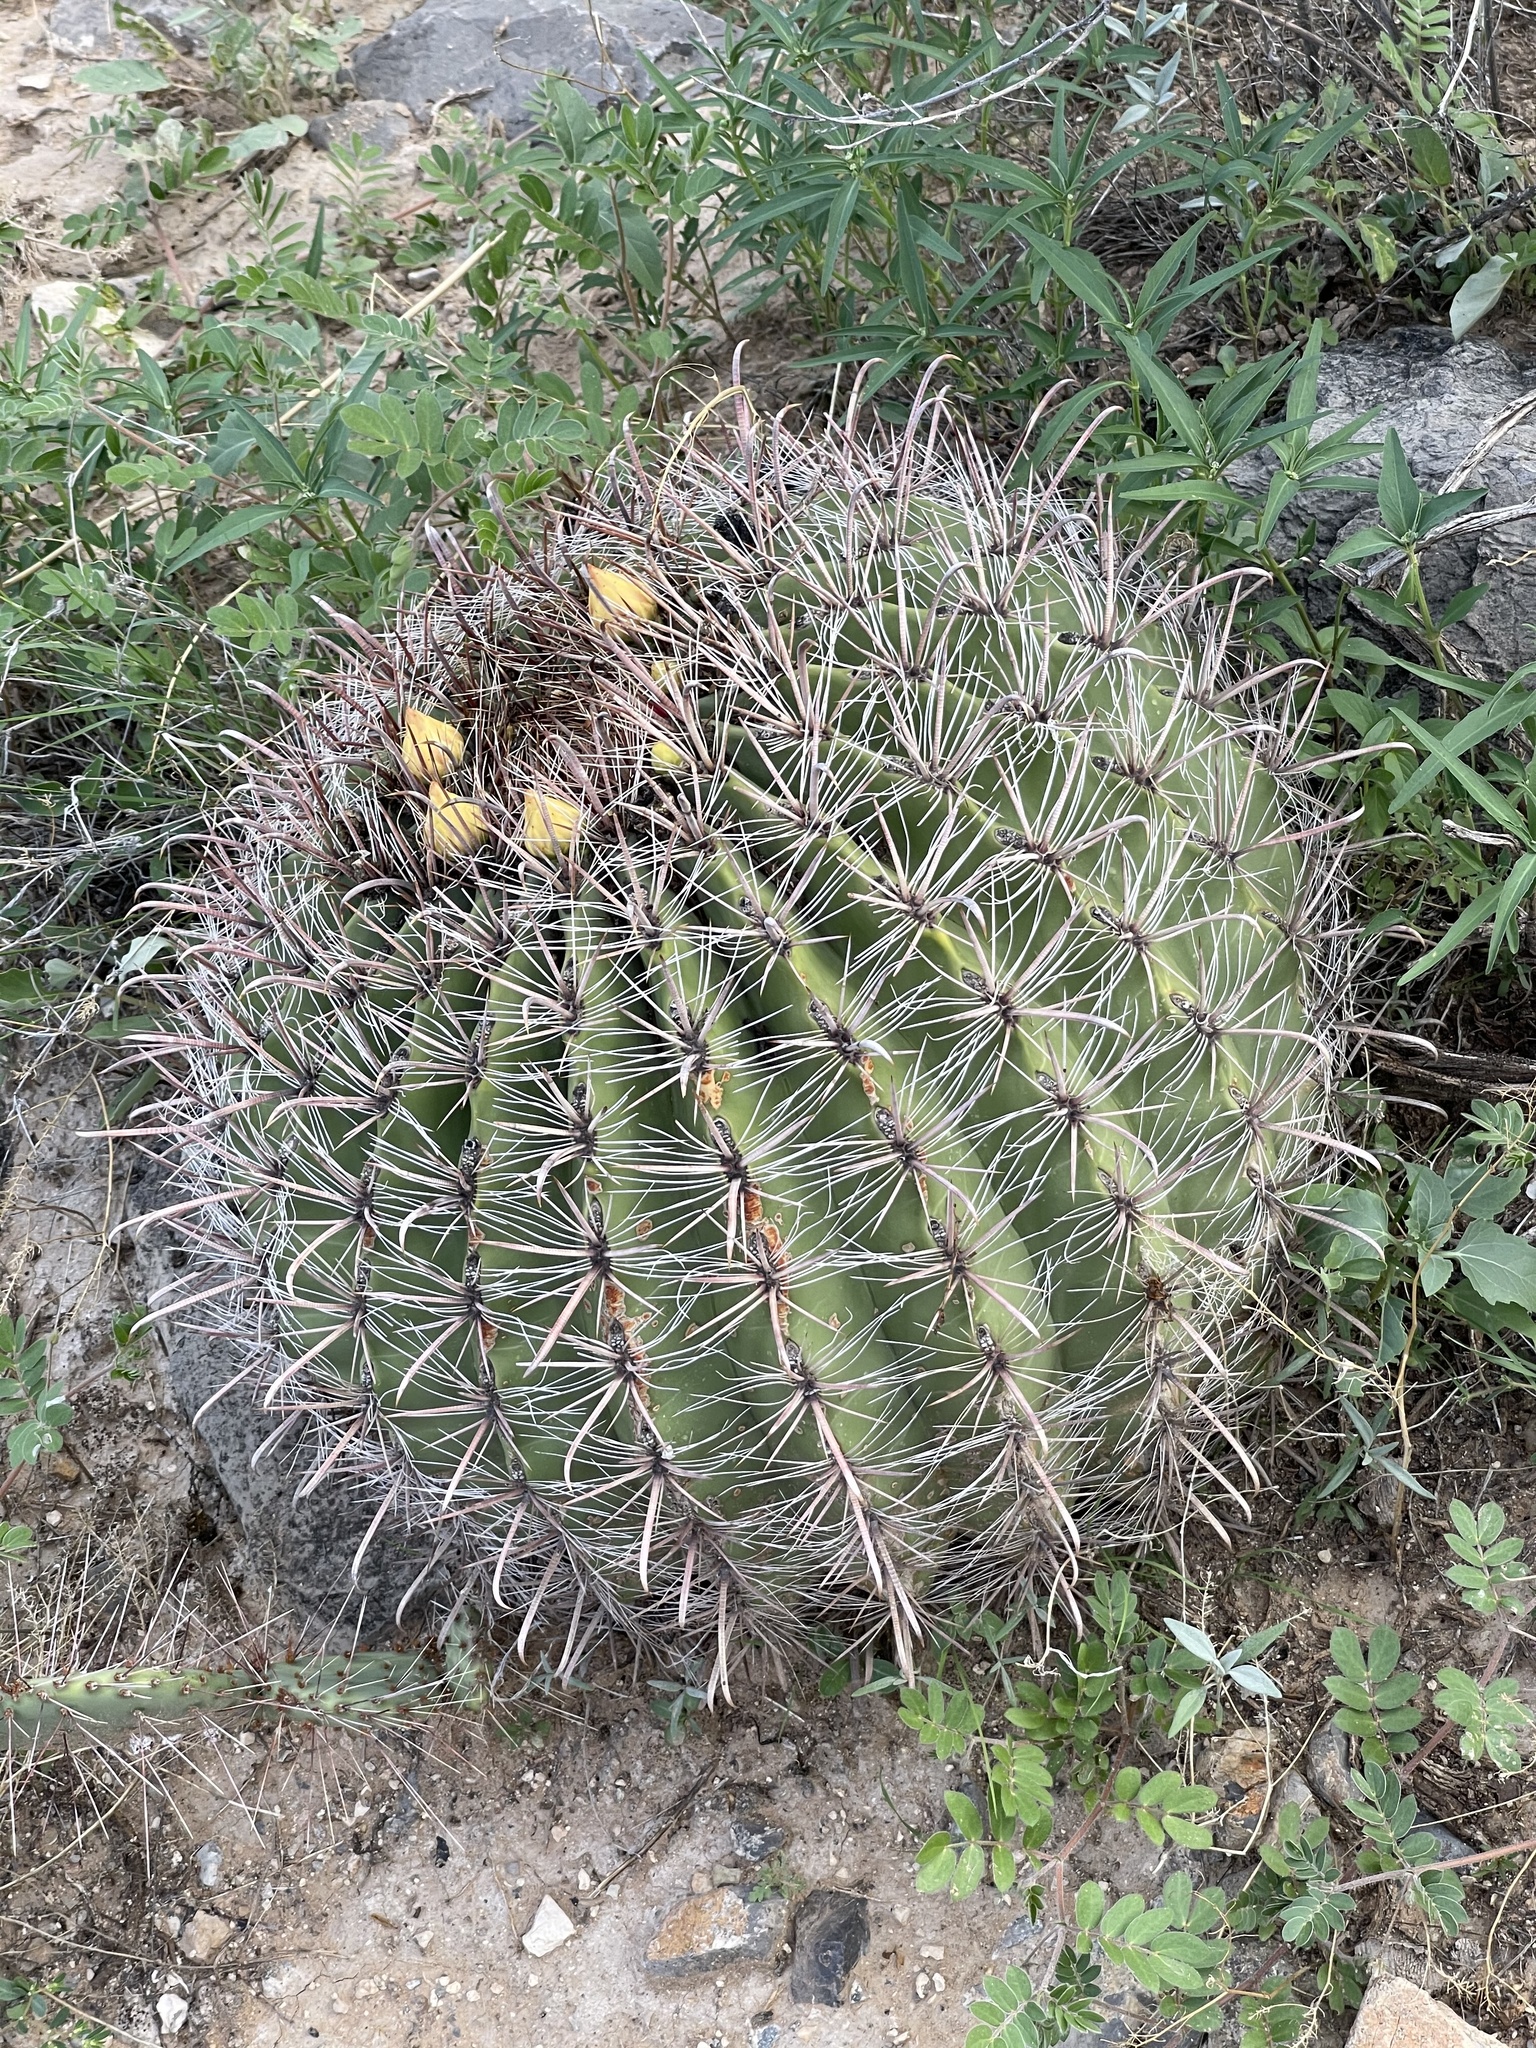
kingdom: Plantae
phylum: Tracheophyta
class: Magnoliopsida
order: Caryophyllales
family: Cactaceae
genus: Ferocactus
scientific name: Ferocactus wislizeni
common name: Candy barrel cactus
